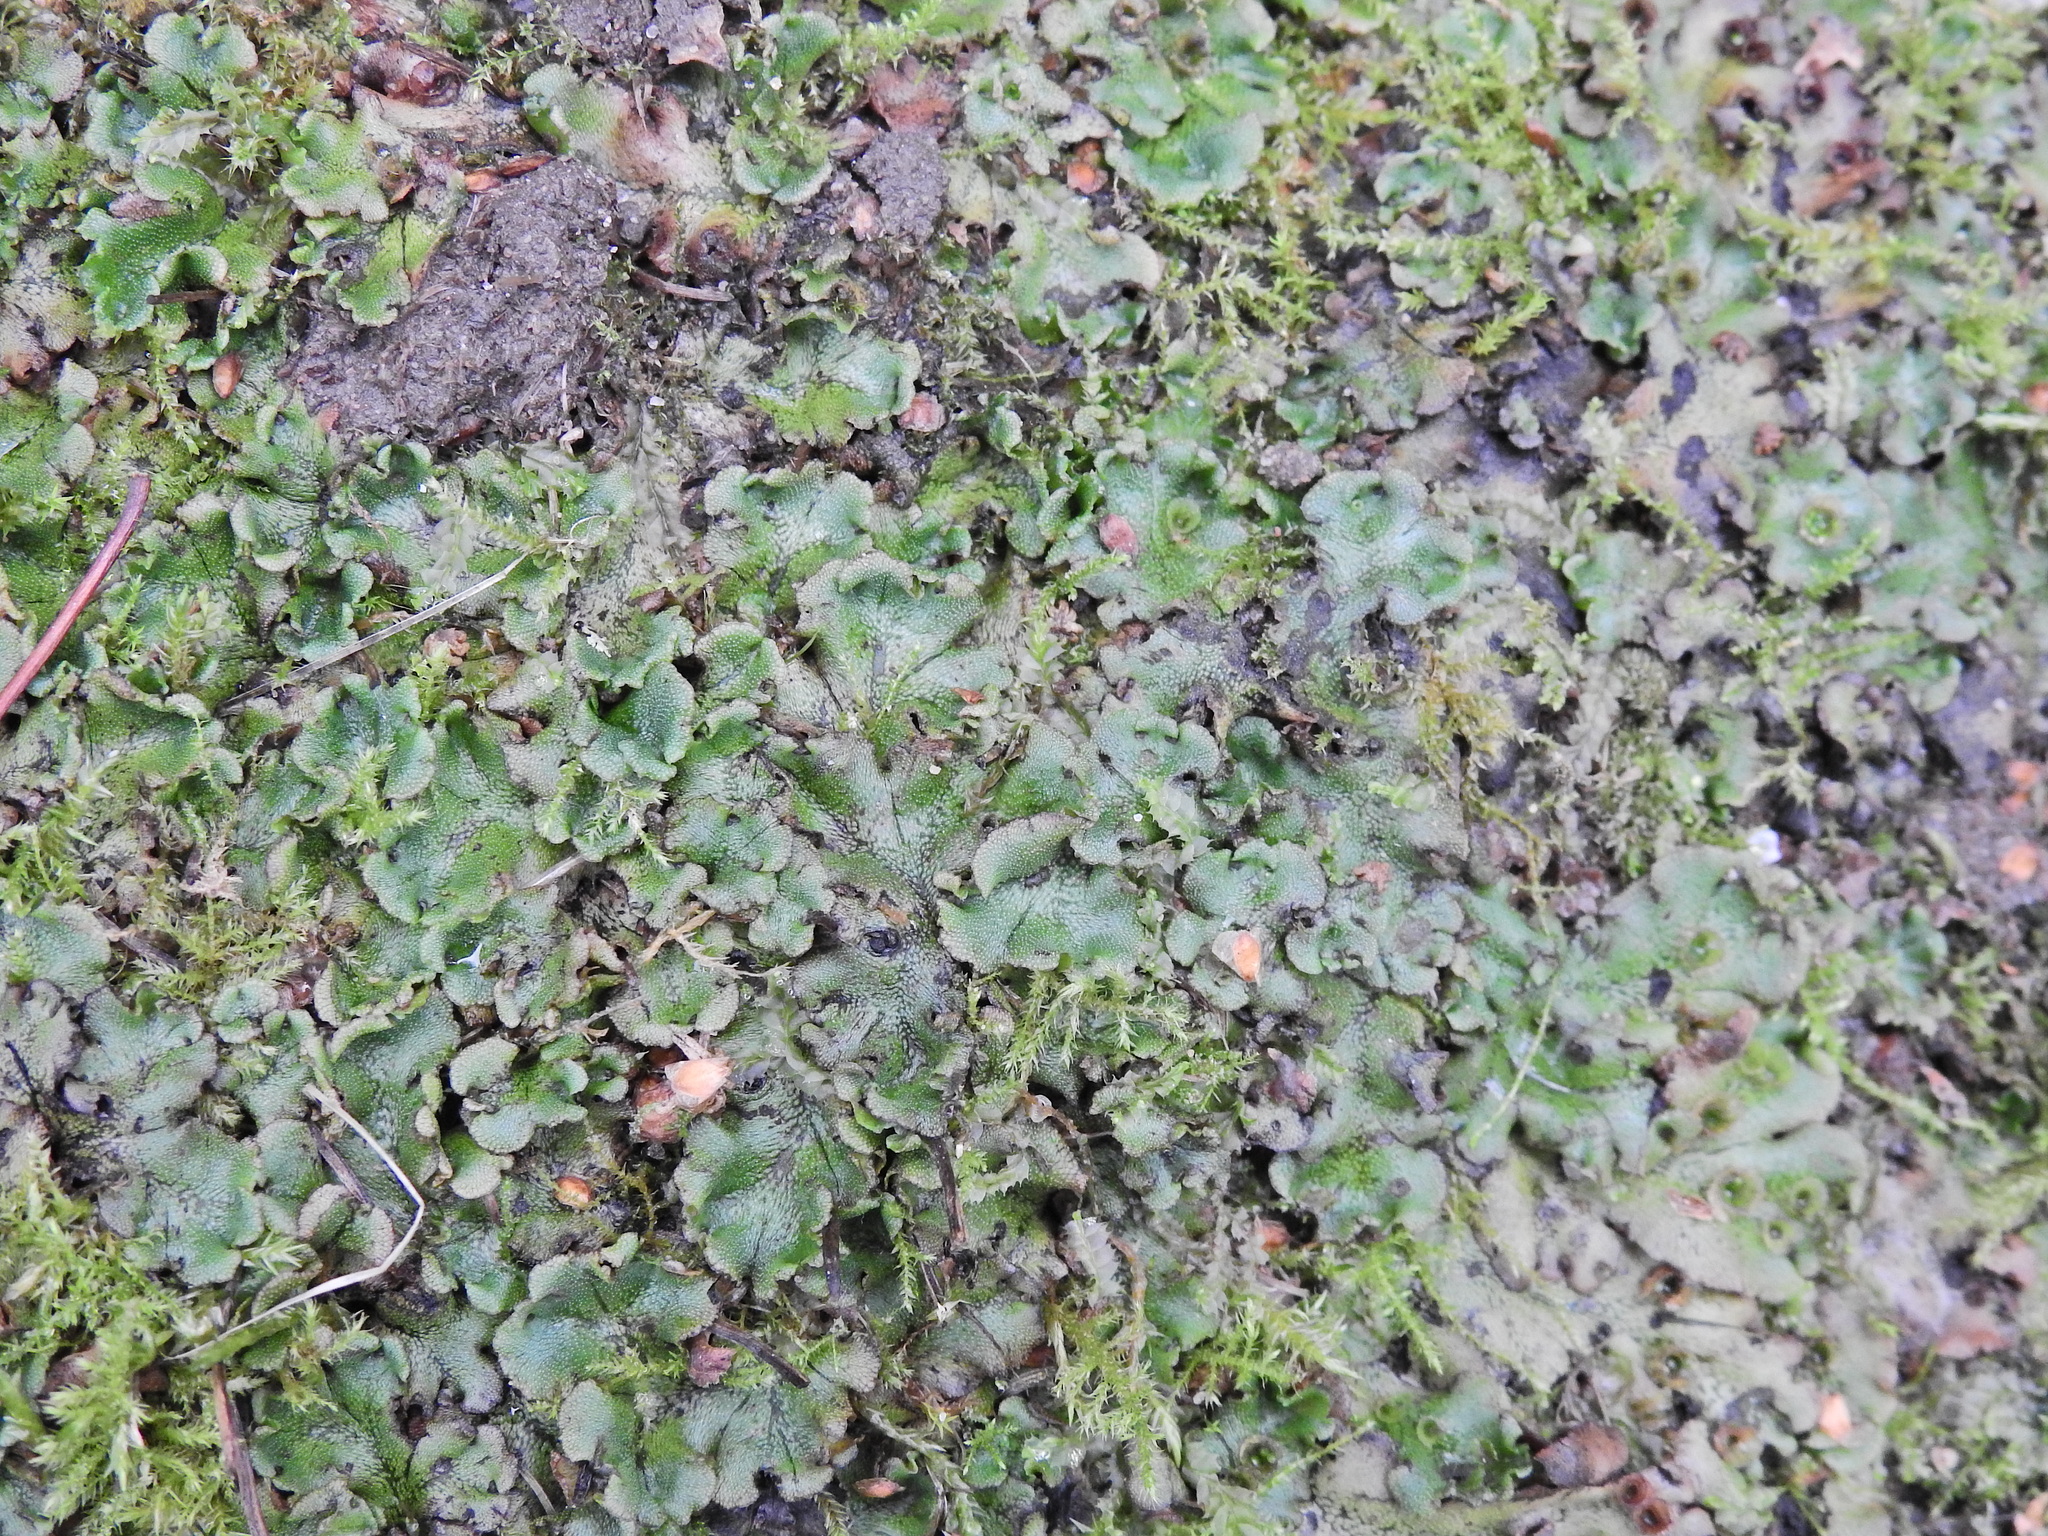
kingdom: Plantae
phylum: Marchantiophyta
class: Marchantiopsida
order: Marchantiales
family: Marchantiaceae
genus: Marchantia
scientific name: Marchantia polymorpha
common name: Common liverwort
